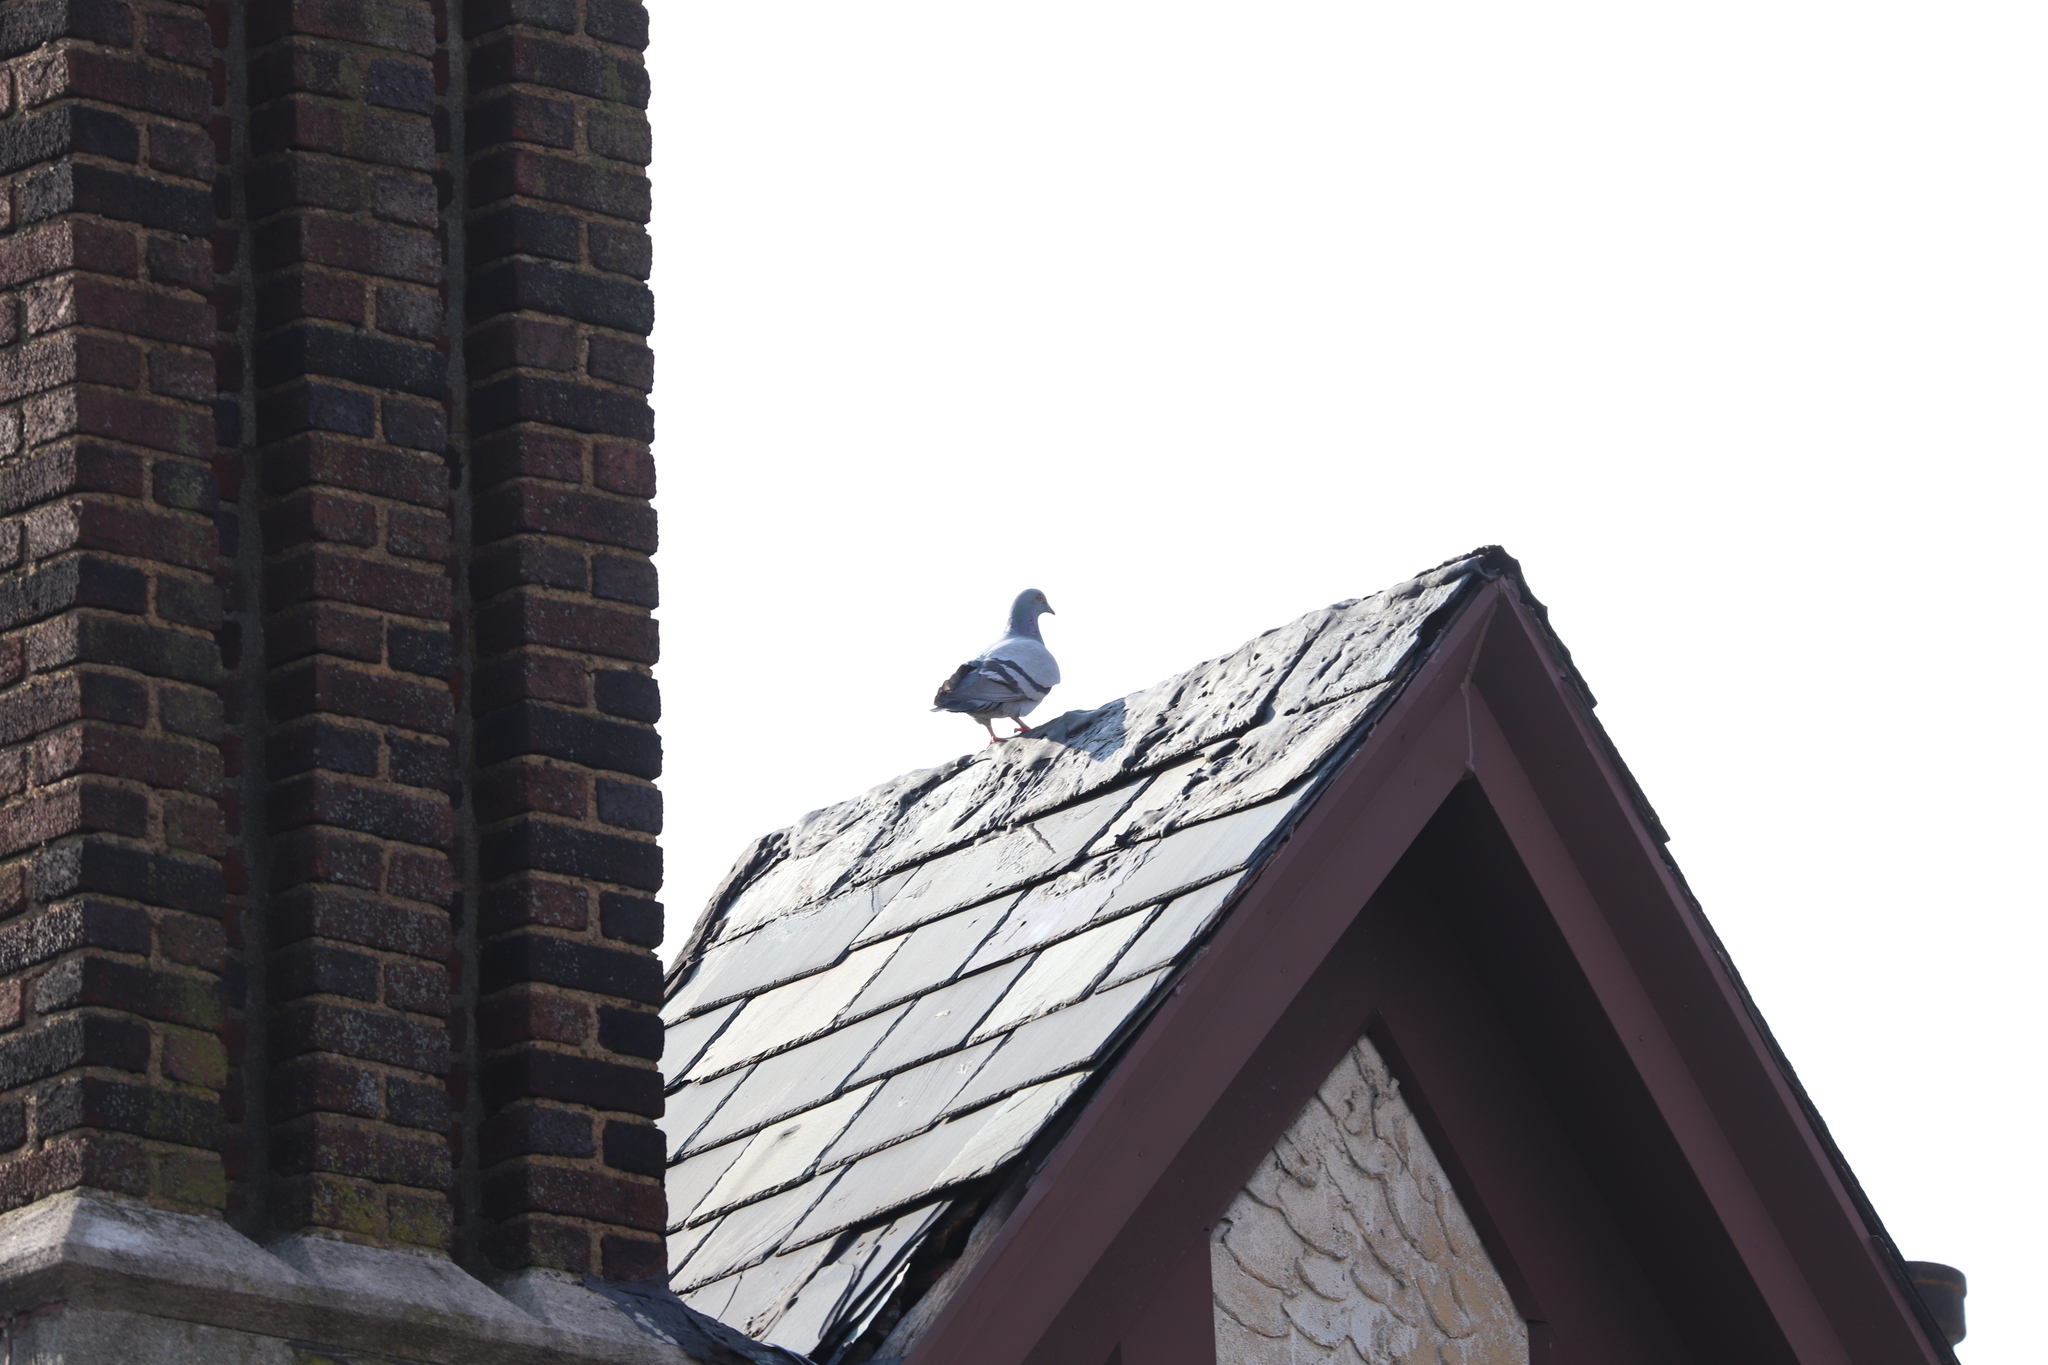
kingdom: Animalia
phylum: Chordata
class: Aves
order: Columbiformes
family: Columbidae
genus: Columba
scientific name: Columba livia
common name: Rock pigeon
